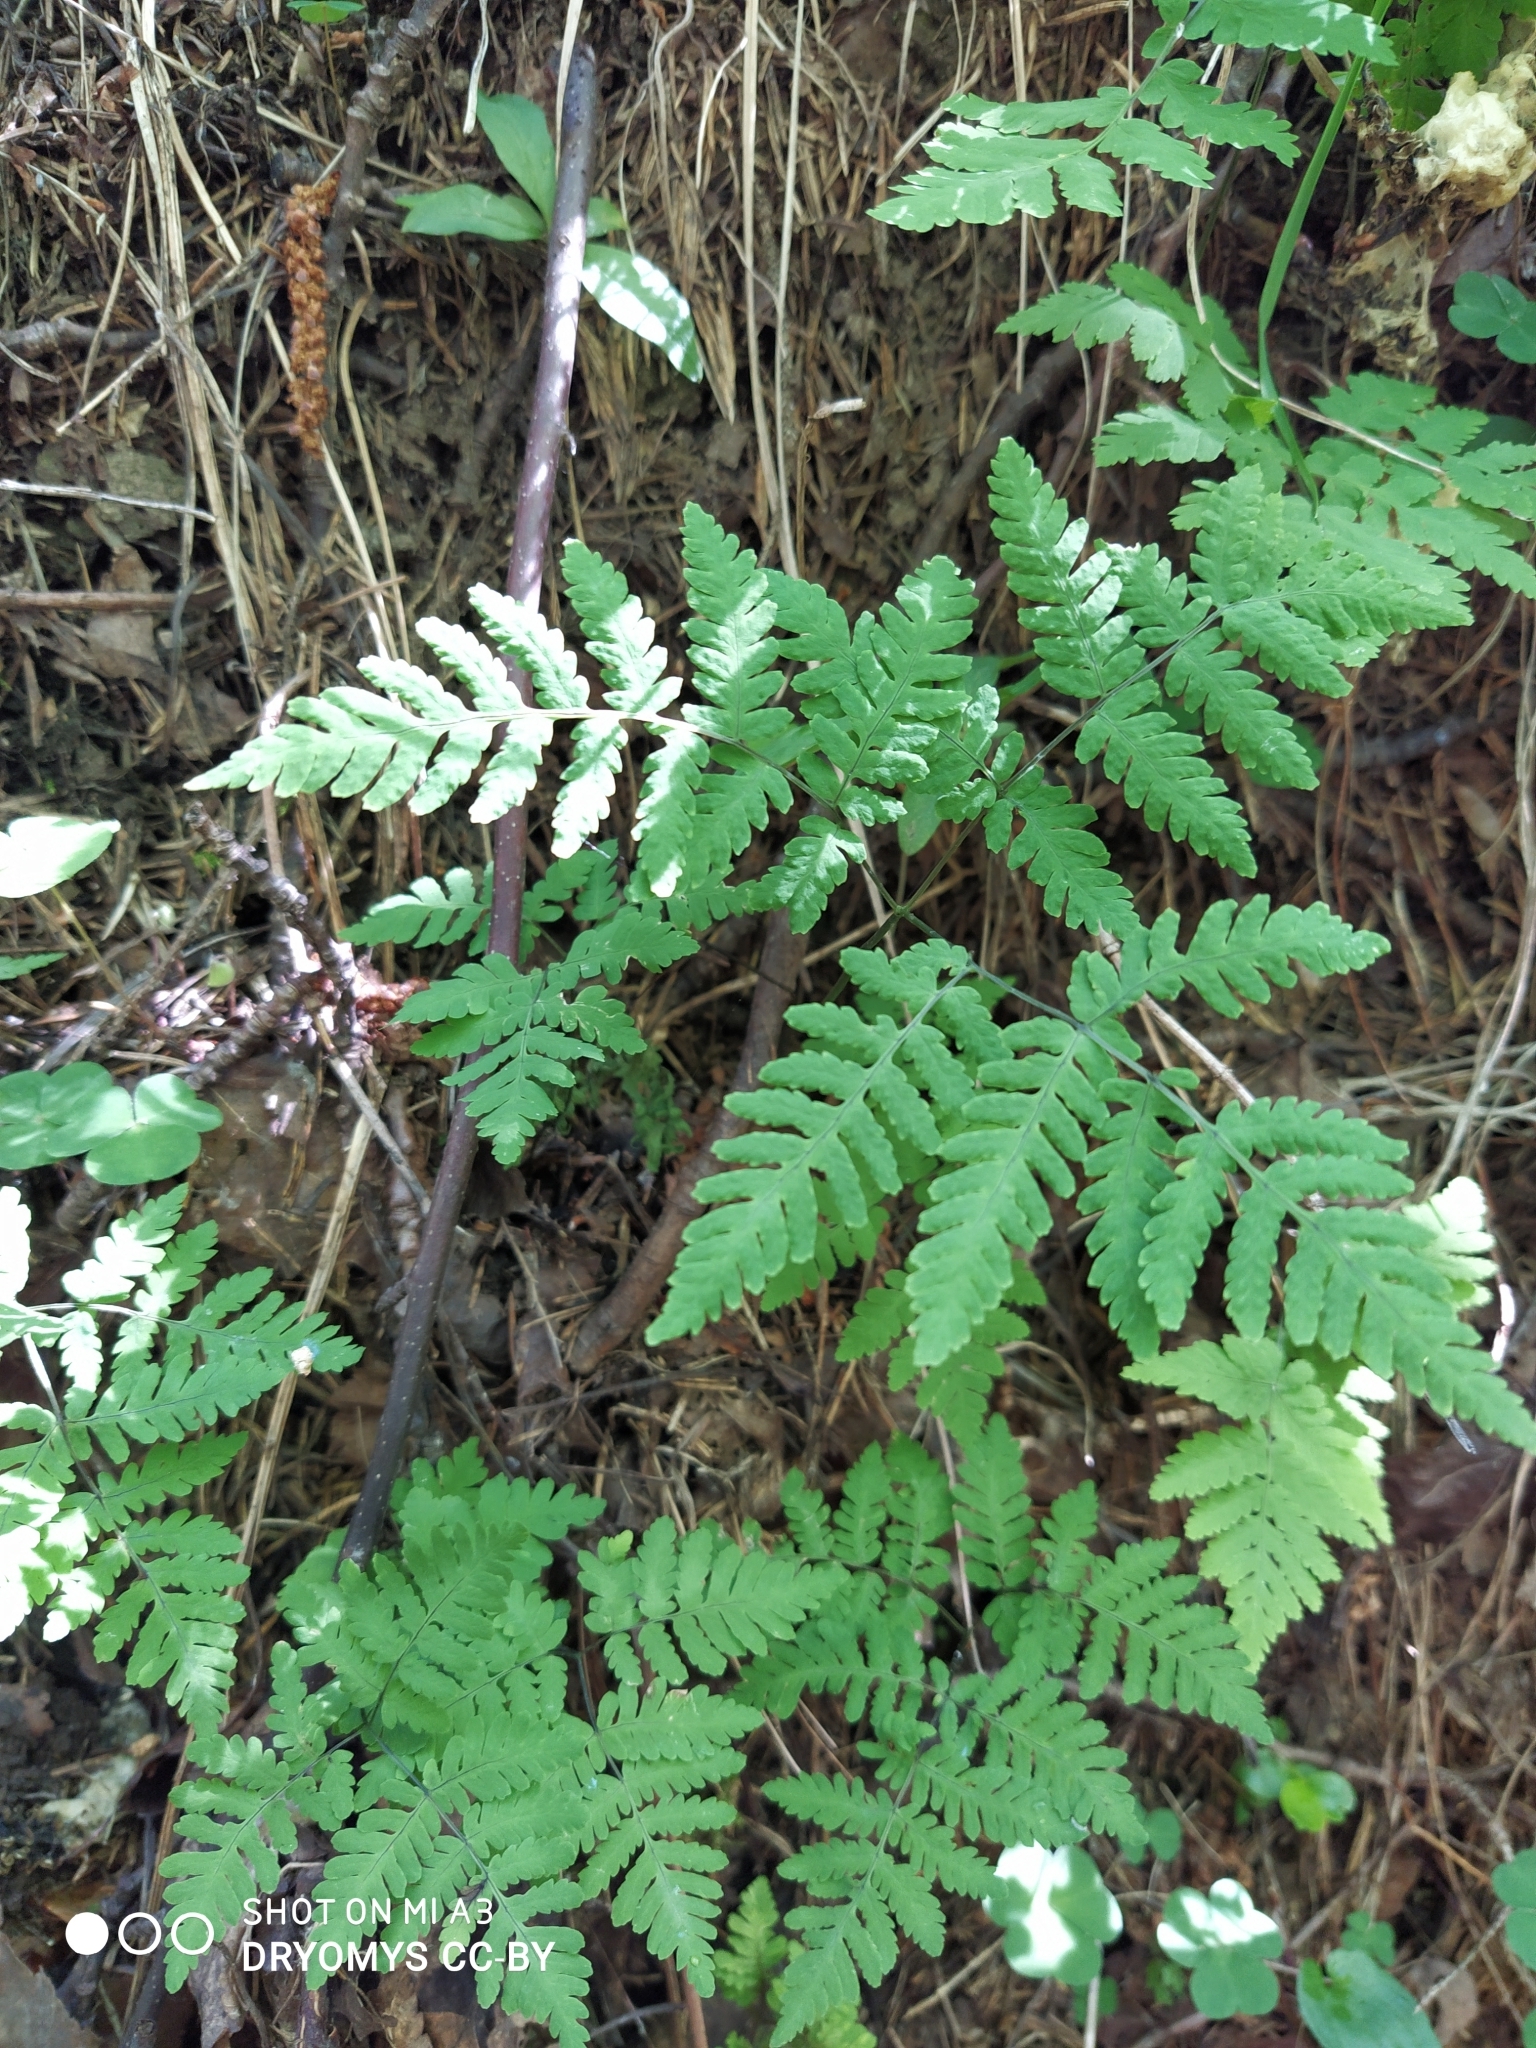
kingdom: Plantae
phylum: Tracheophyta
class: Polypodiopsida
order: Polypodiales
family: Cystopteridaceae
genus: Gymnocarpium
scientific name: Gymnocarpium dryopteris
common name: Oak fern
